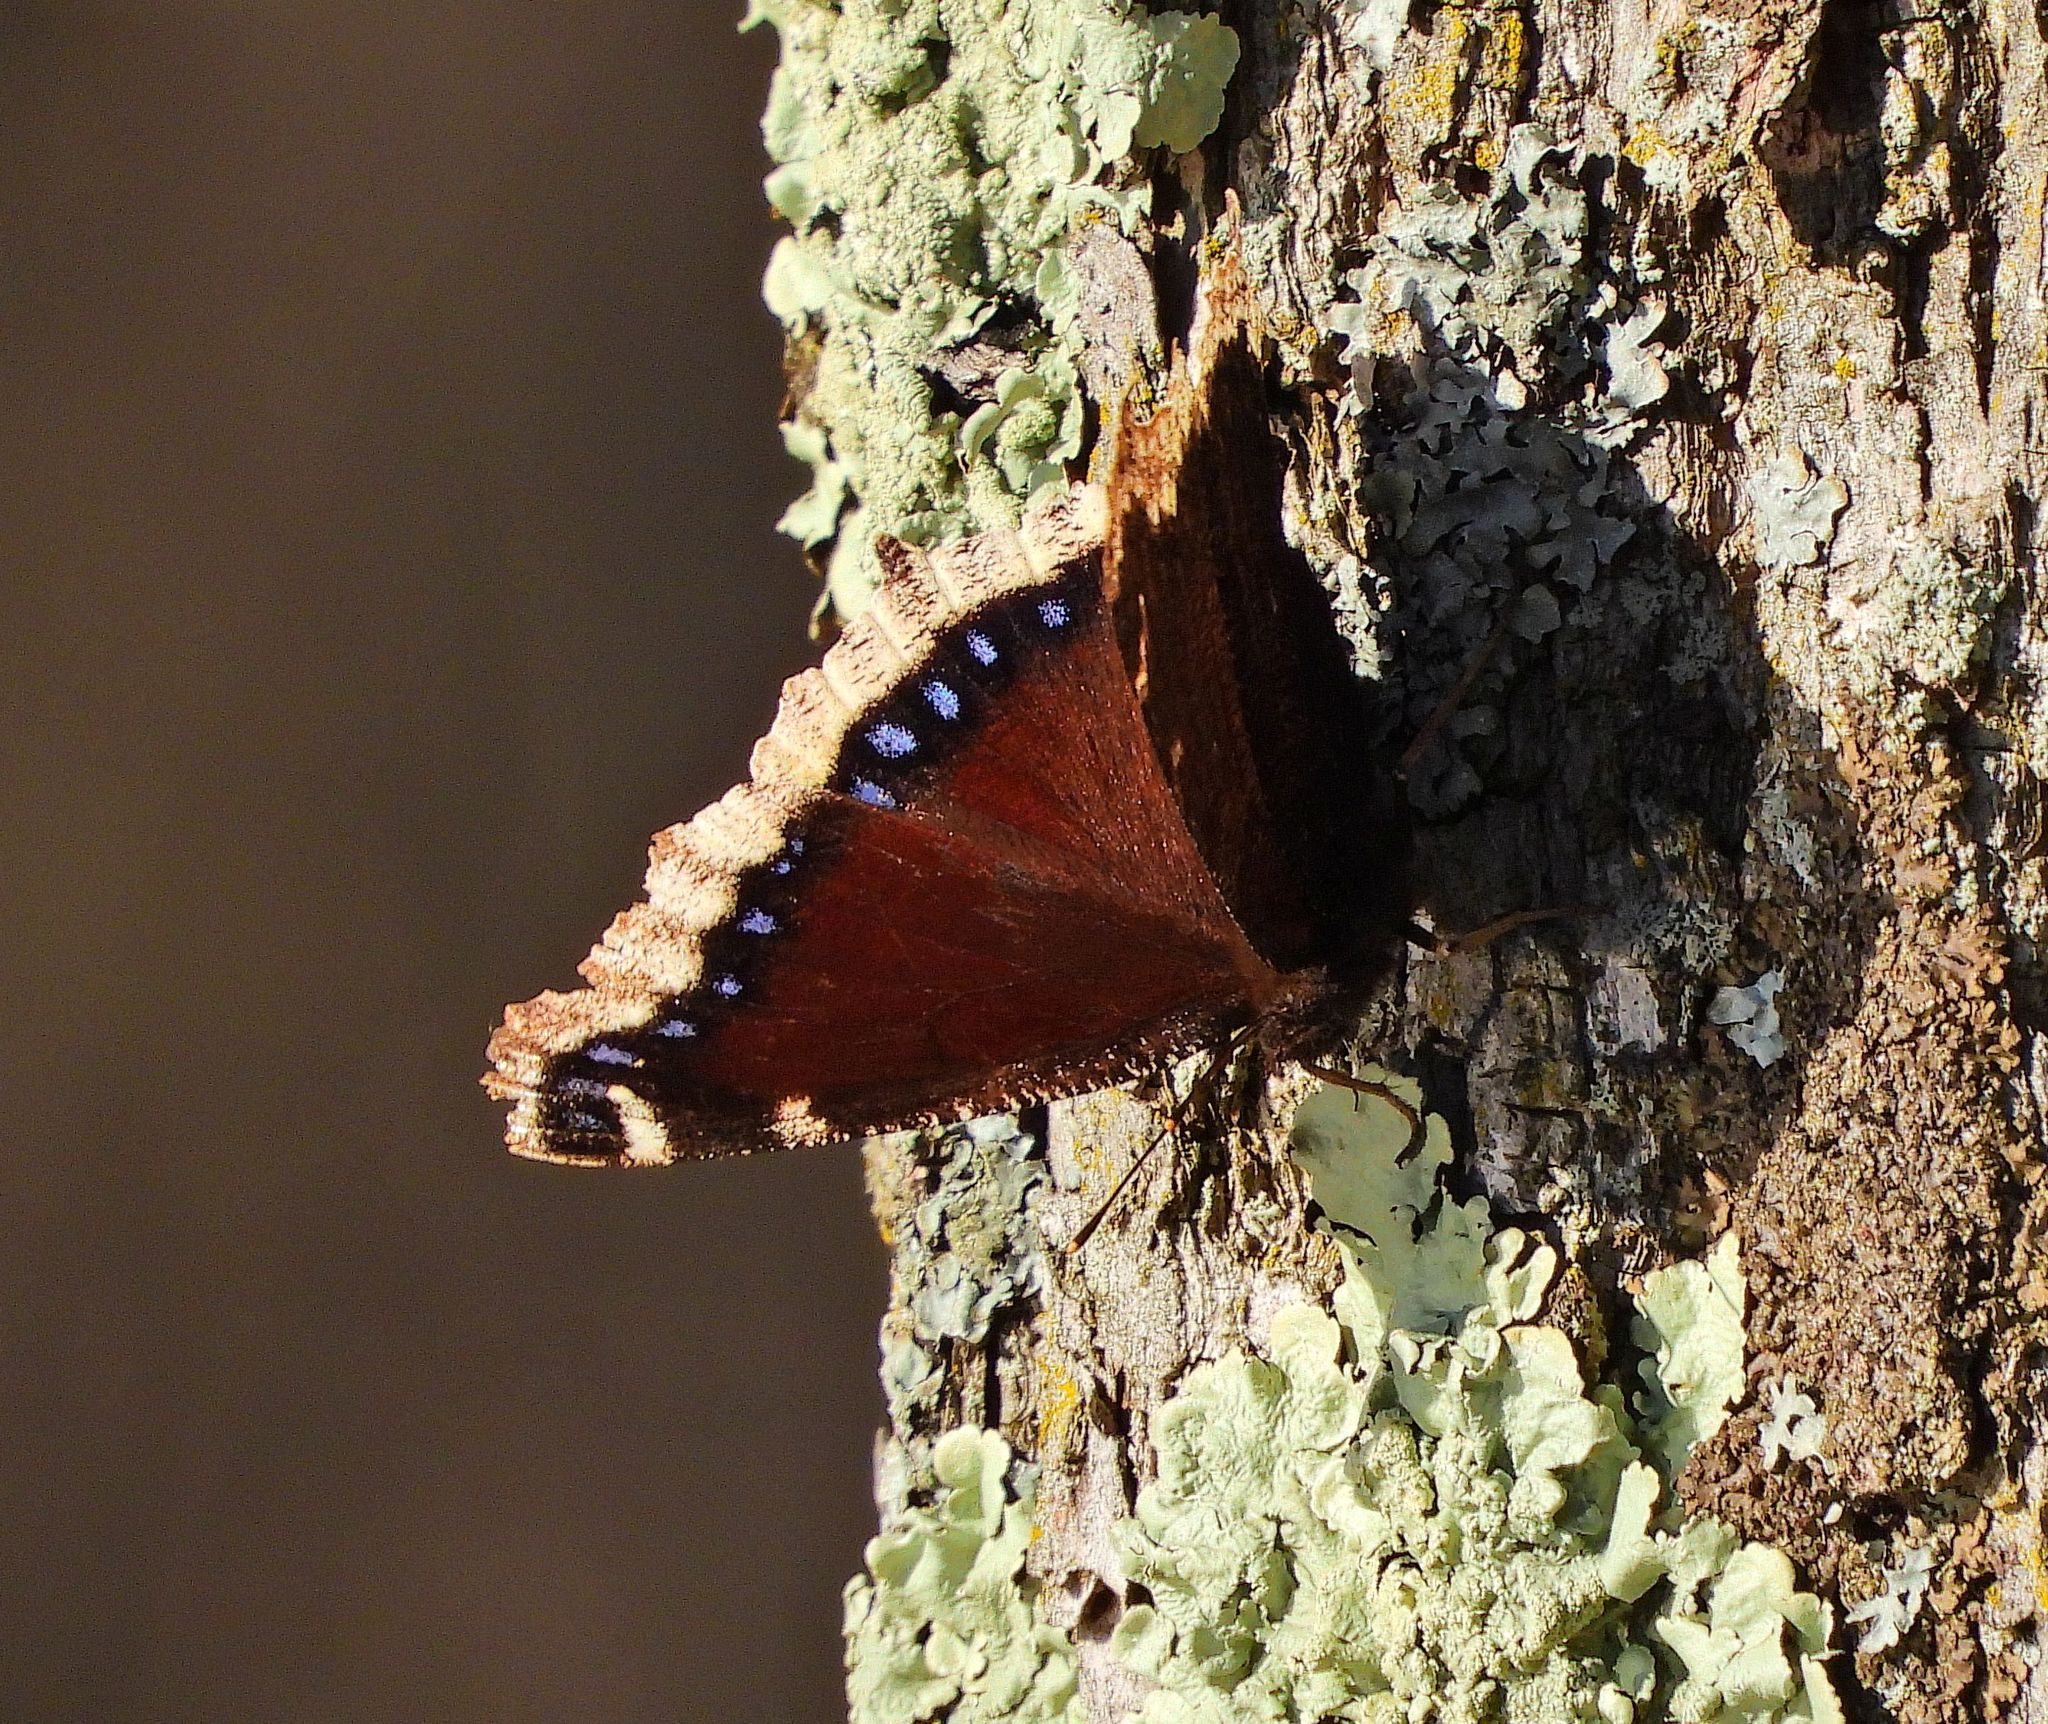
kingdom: Animalia
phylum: Arthropoda
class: Insecta
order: Lepidoptera
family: Nymphalidae
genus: Nymphalis
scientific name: Nymphalis antiopa
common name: Camberwell beauty
